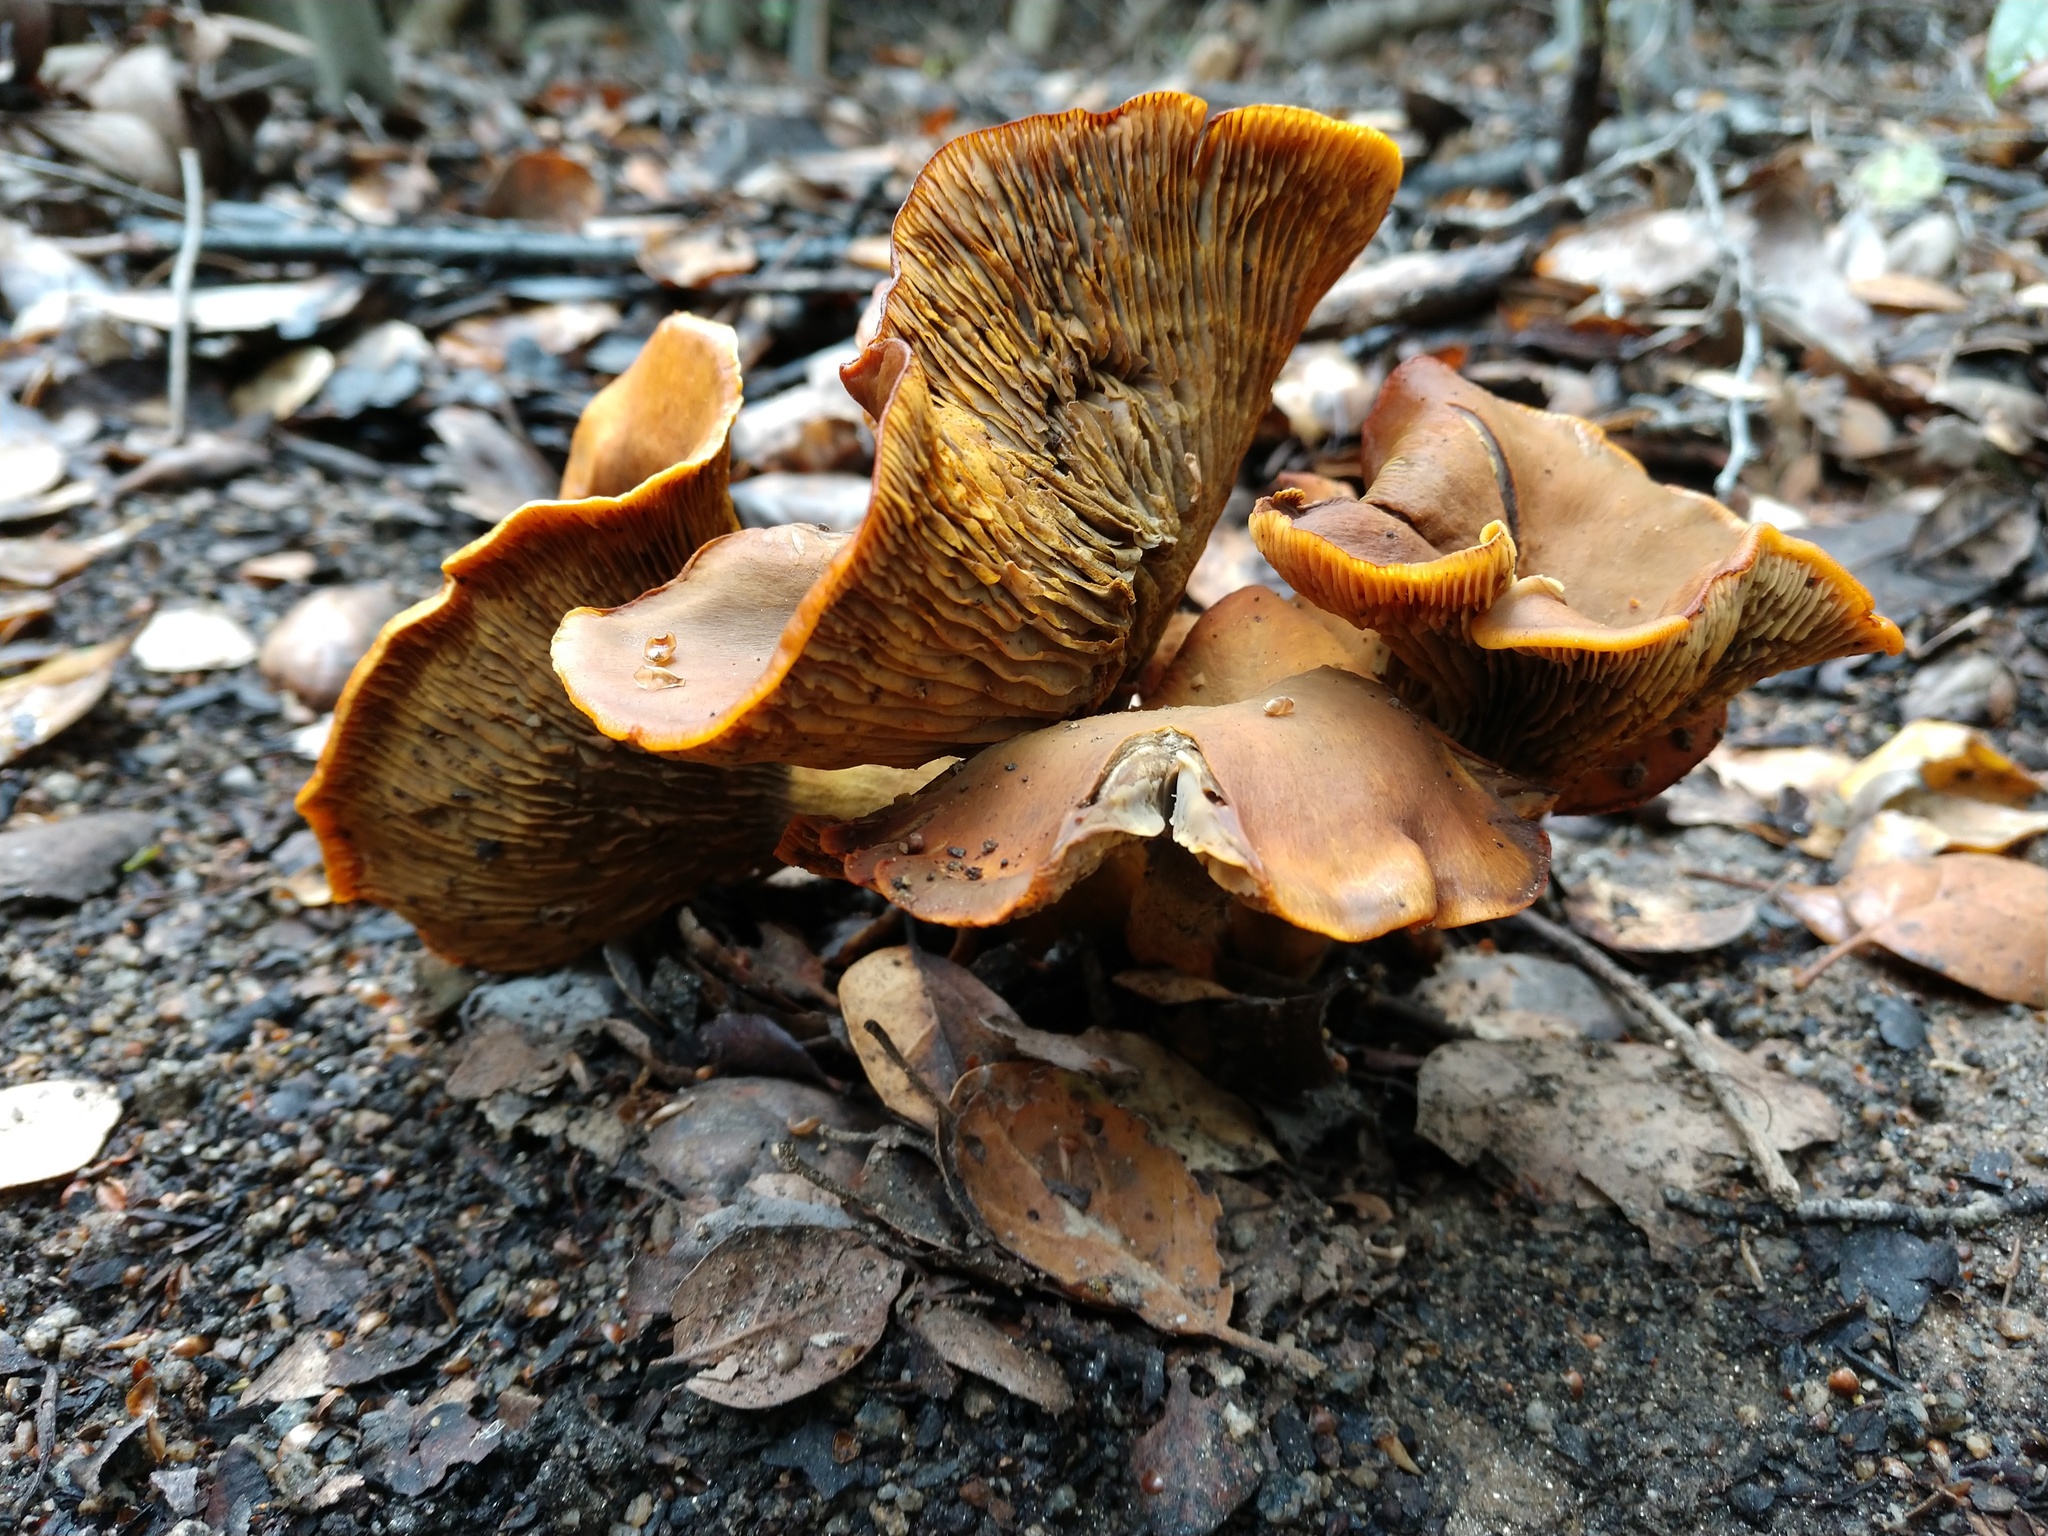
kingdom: Fungi
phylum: Basidiomycota
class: Agaricomycetes
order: Agaricales
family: Omphalotaceae
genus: Omphalotus
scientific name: Omphalotus olivascens
